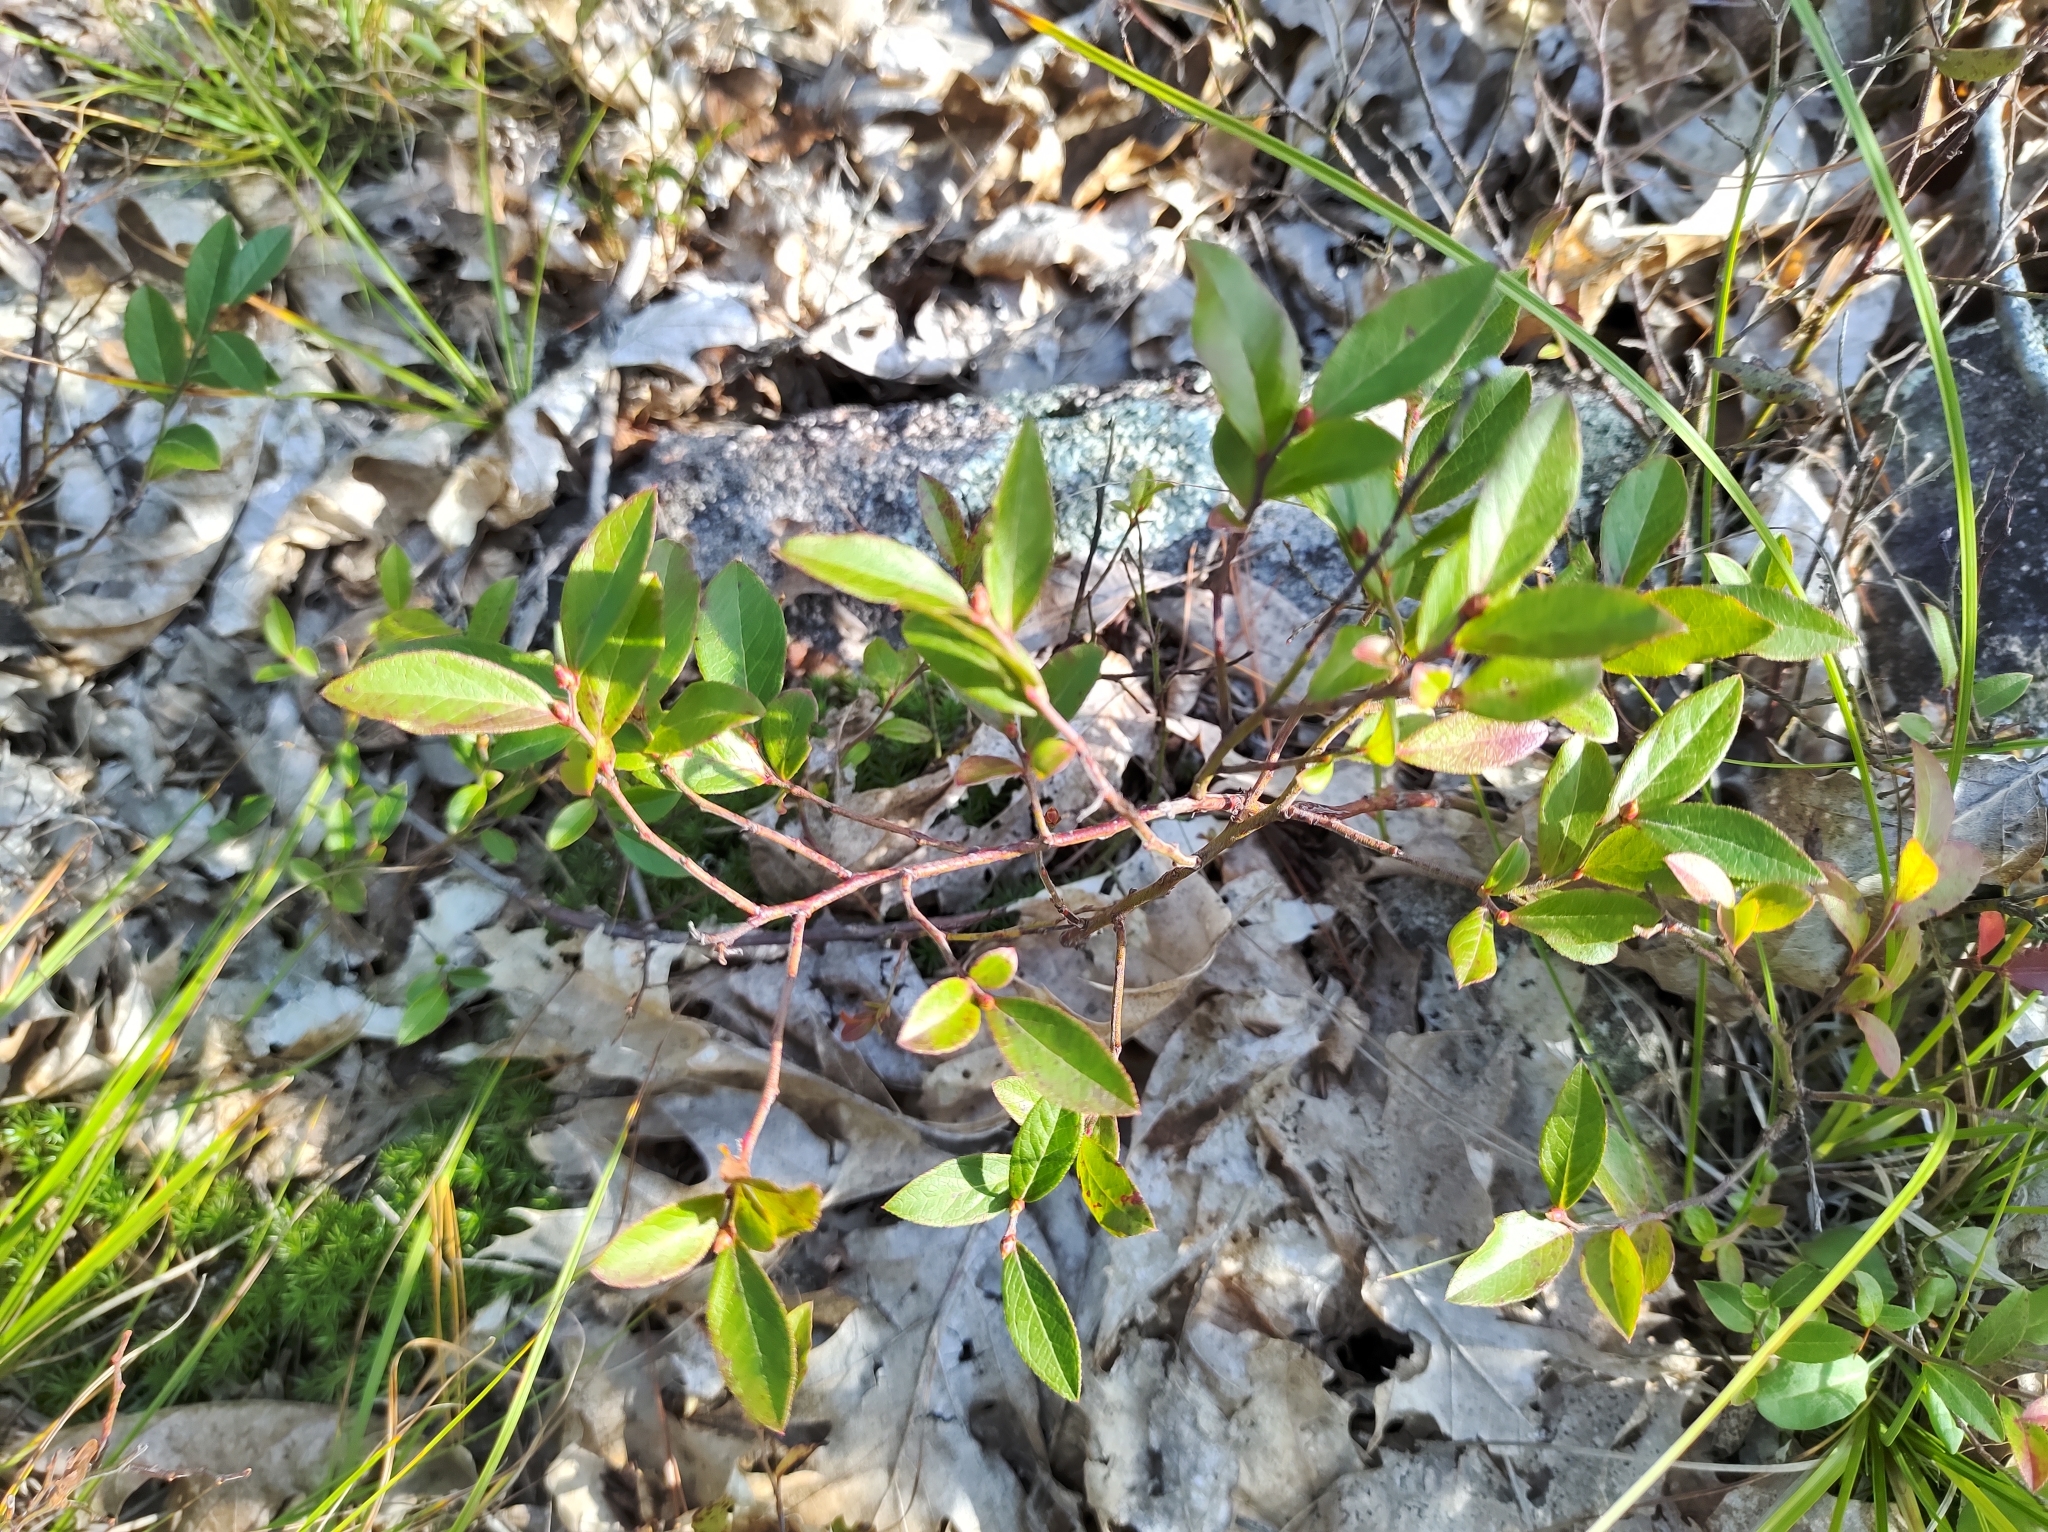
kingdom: Plantae
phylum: Tracheophyta
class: Magnoliopsida
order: Ericales
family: Ericaceae
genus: Vaccinium
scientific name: Vaccinium angustifolium
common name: Early lowbush blueberry
